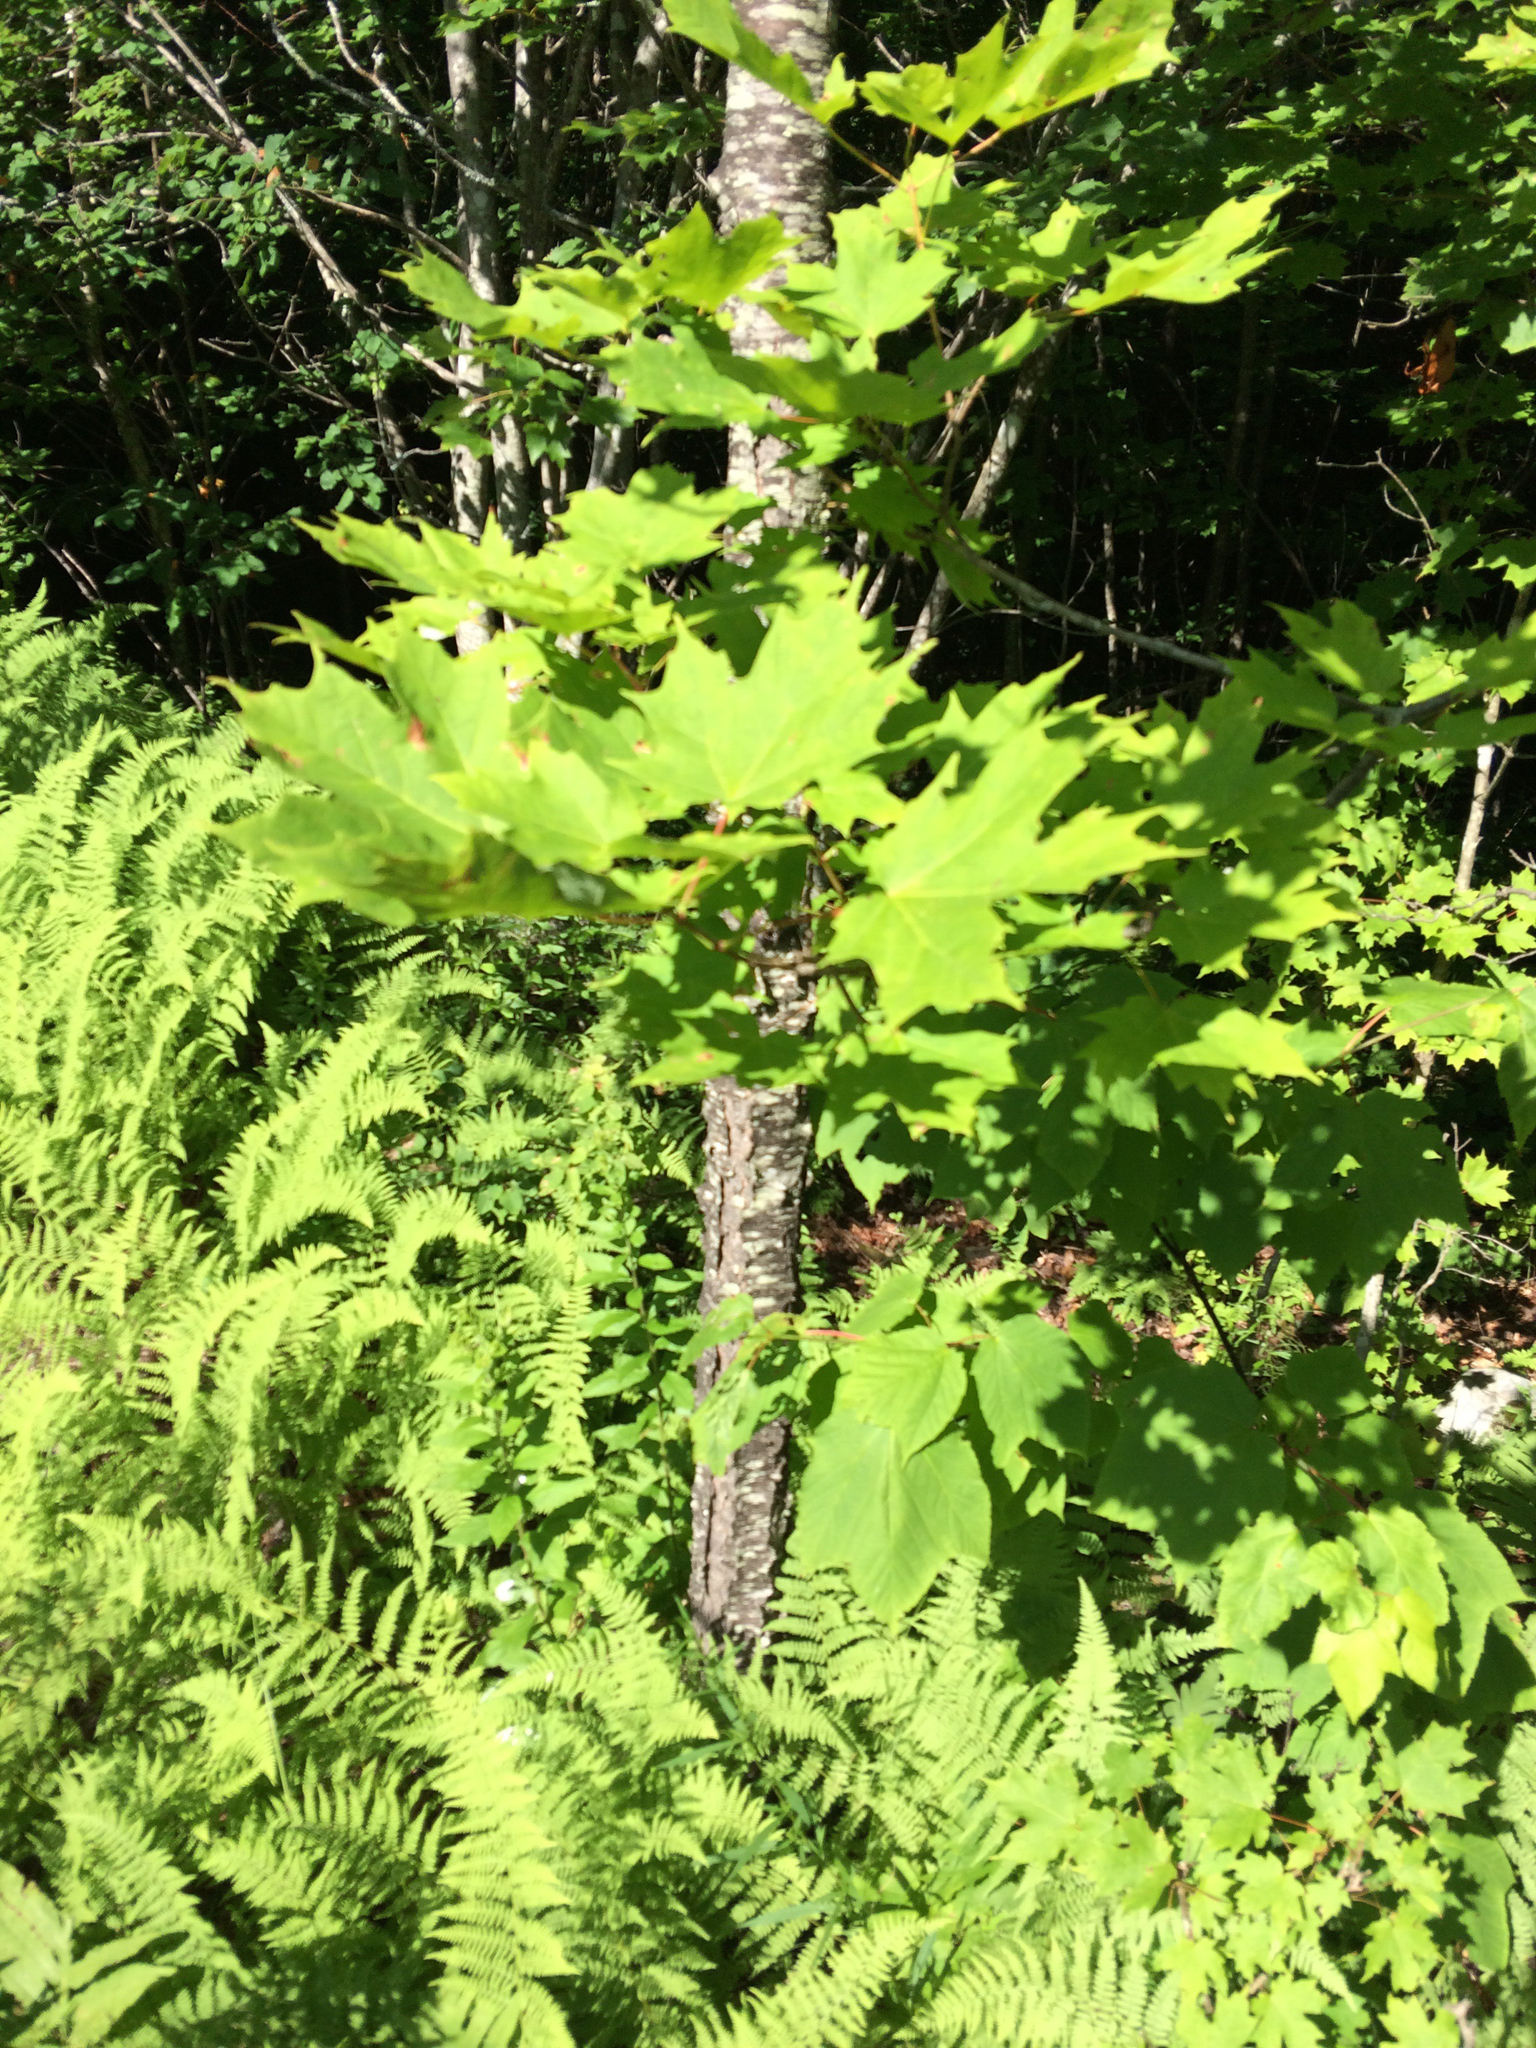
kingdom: Plantae
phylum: Tracheophyta
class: Magnoliopsida
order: Sapindales
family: Sapindaceae
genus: Acer
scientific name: Acer saccharum
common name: Sugar maple
